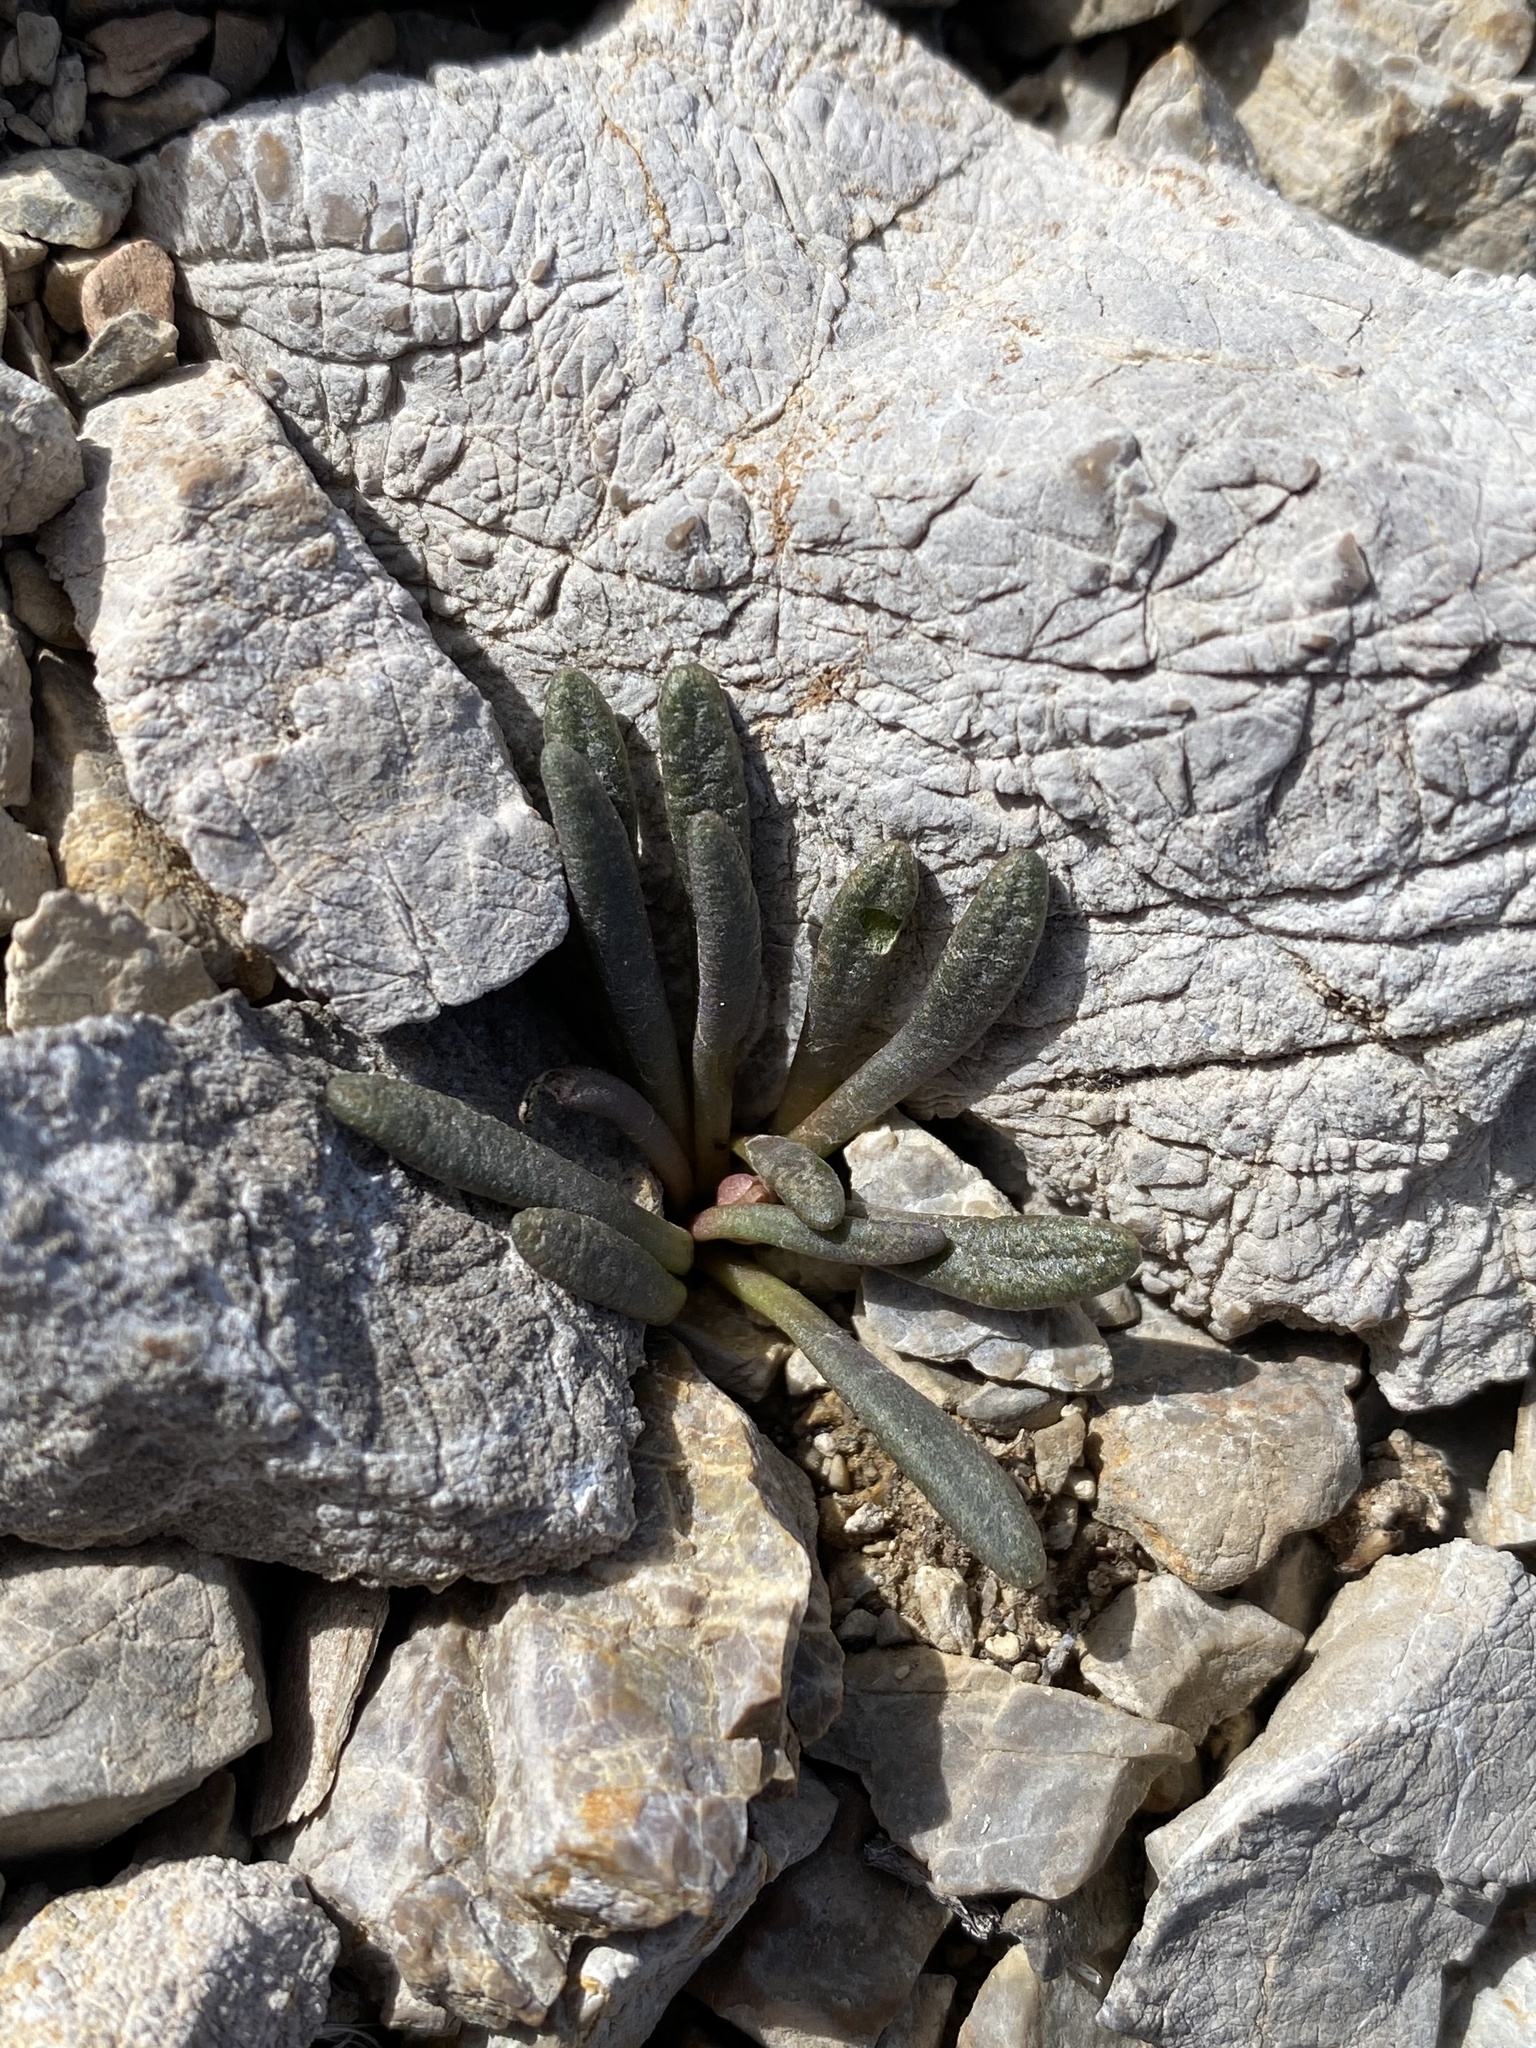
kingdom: Plantae
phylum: Tracheophyta
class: Magnoliopsida
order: Caryophyllales
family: Montiaceae
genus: Lewisia
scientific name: Lewisia maguirei
